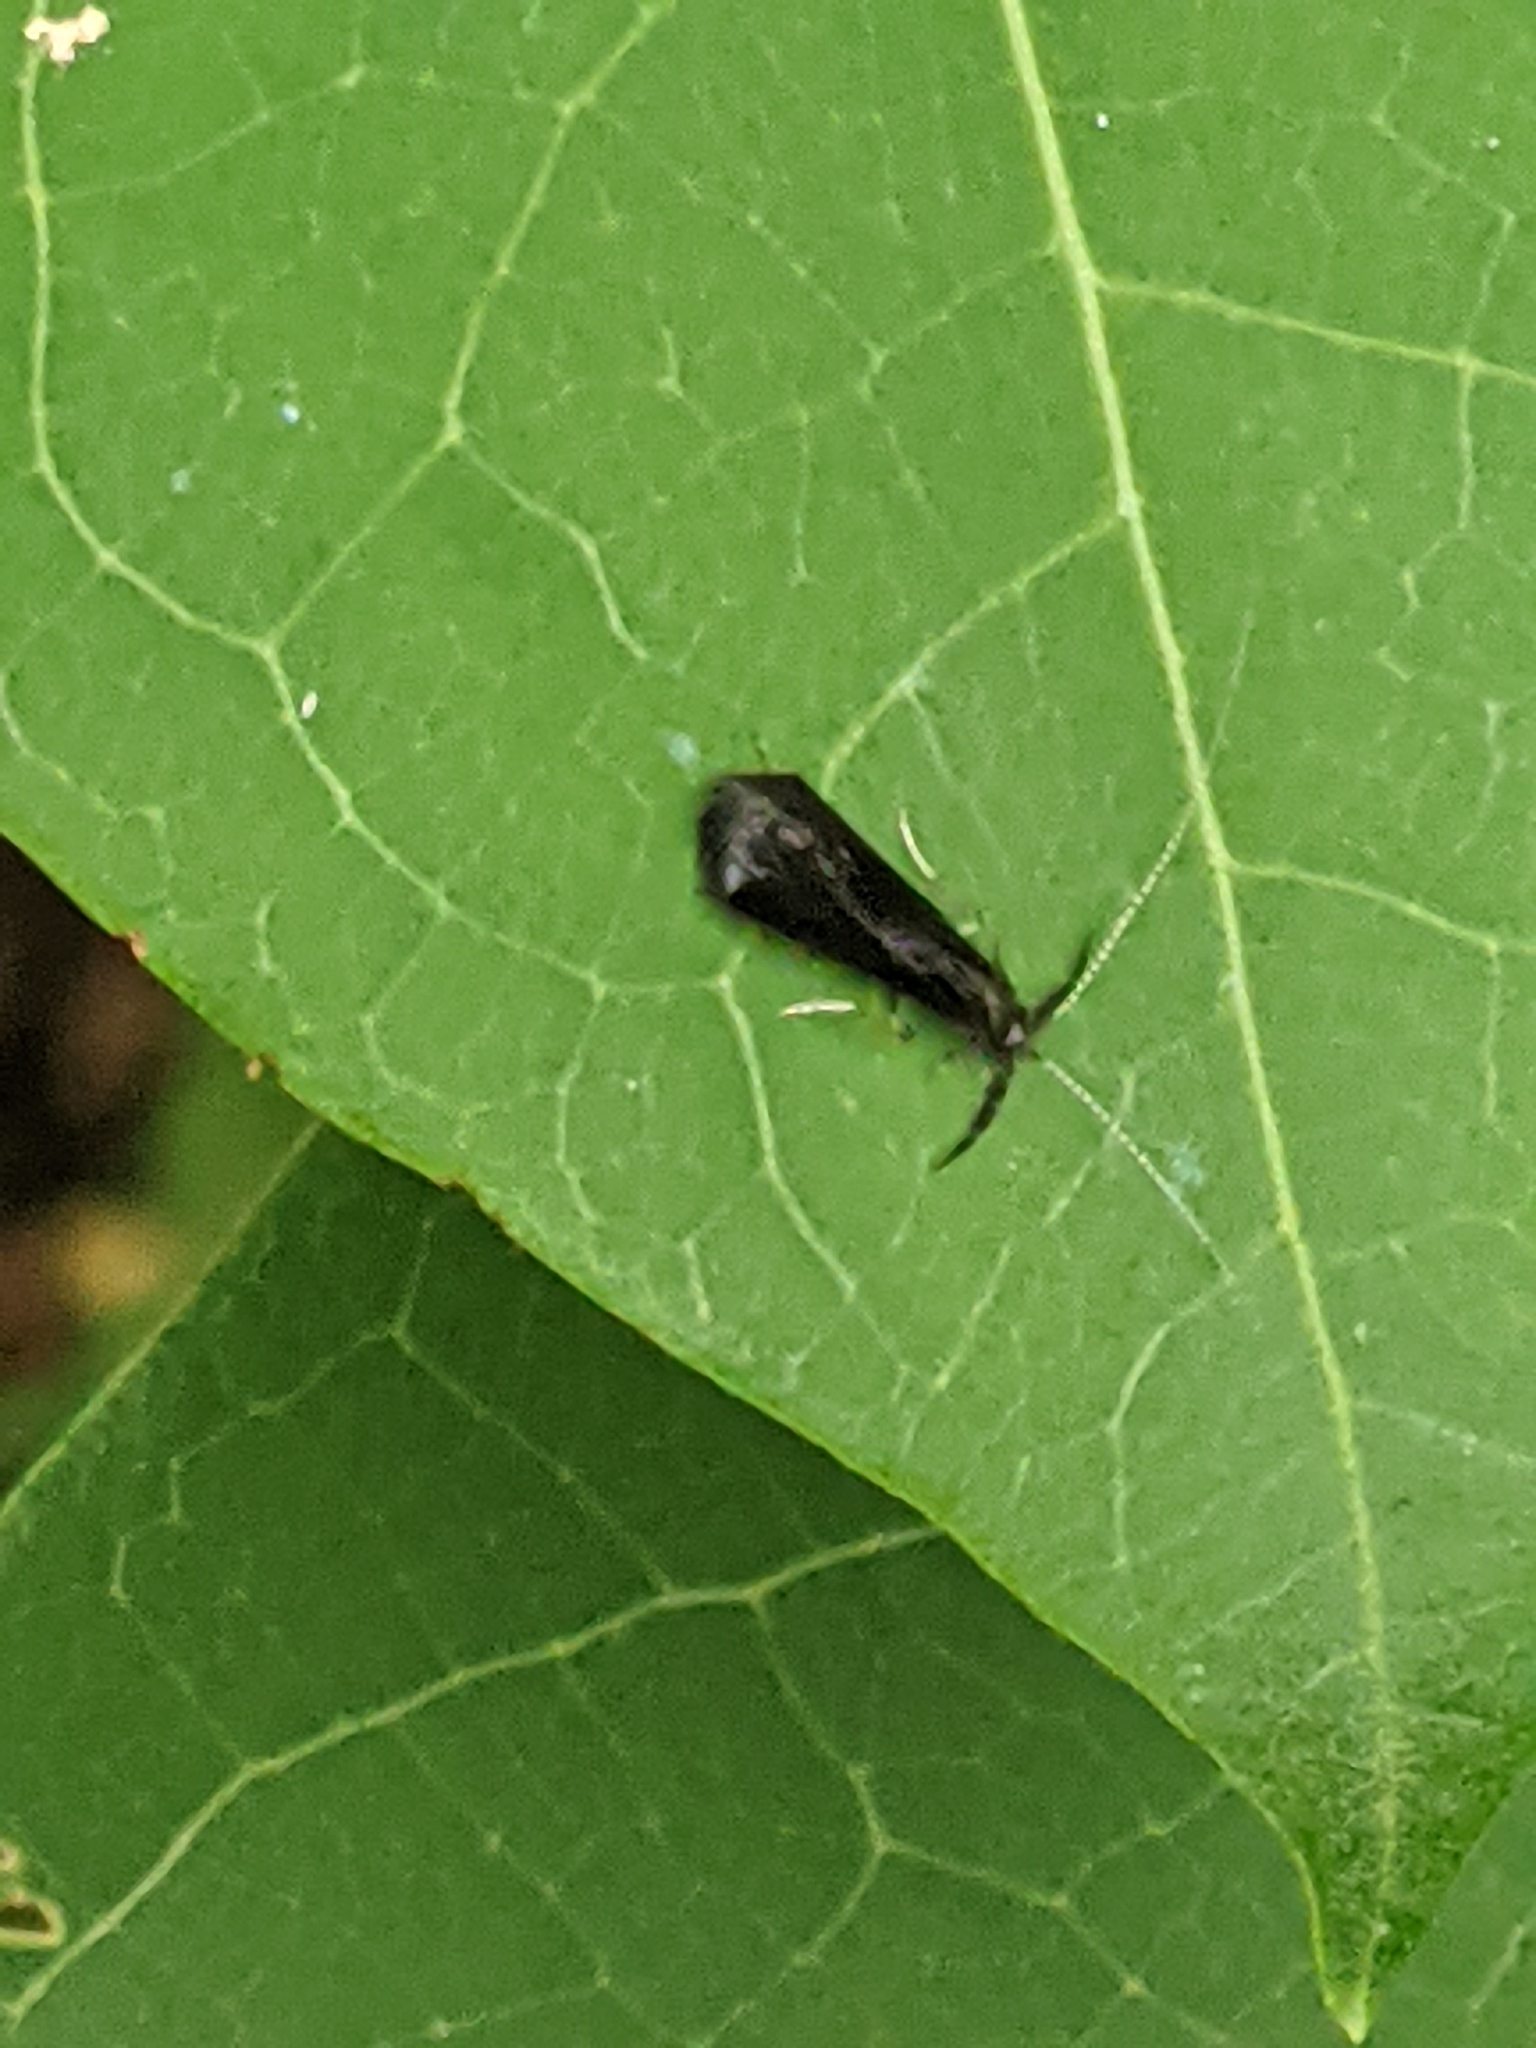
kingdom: Animalia
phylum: Arthropoda
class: Insecta
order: Trichoptera
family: Leptoceridae
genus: Mystacides
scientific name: Mystacides sepulchralis
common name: Black dancer caddisfly
